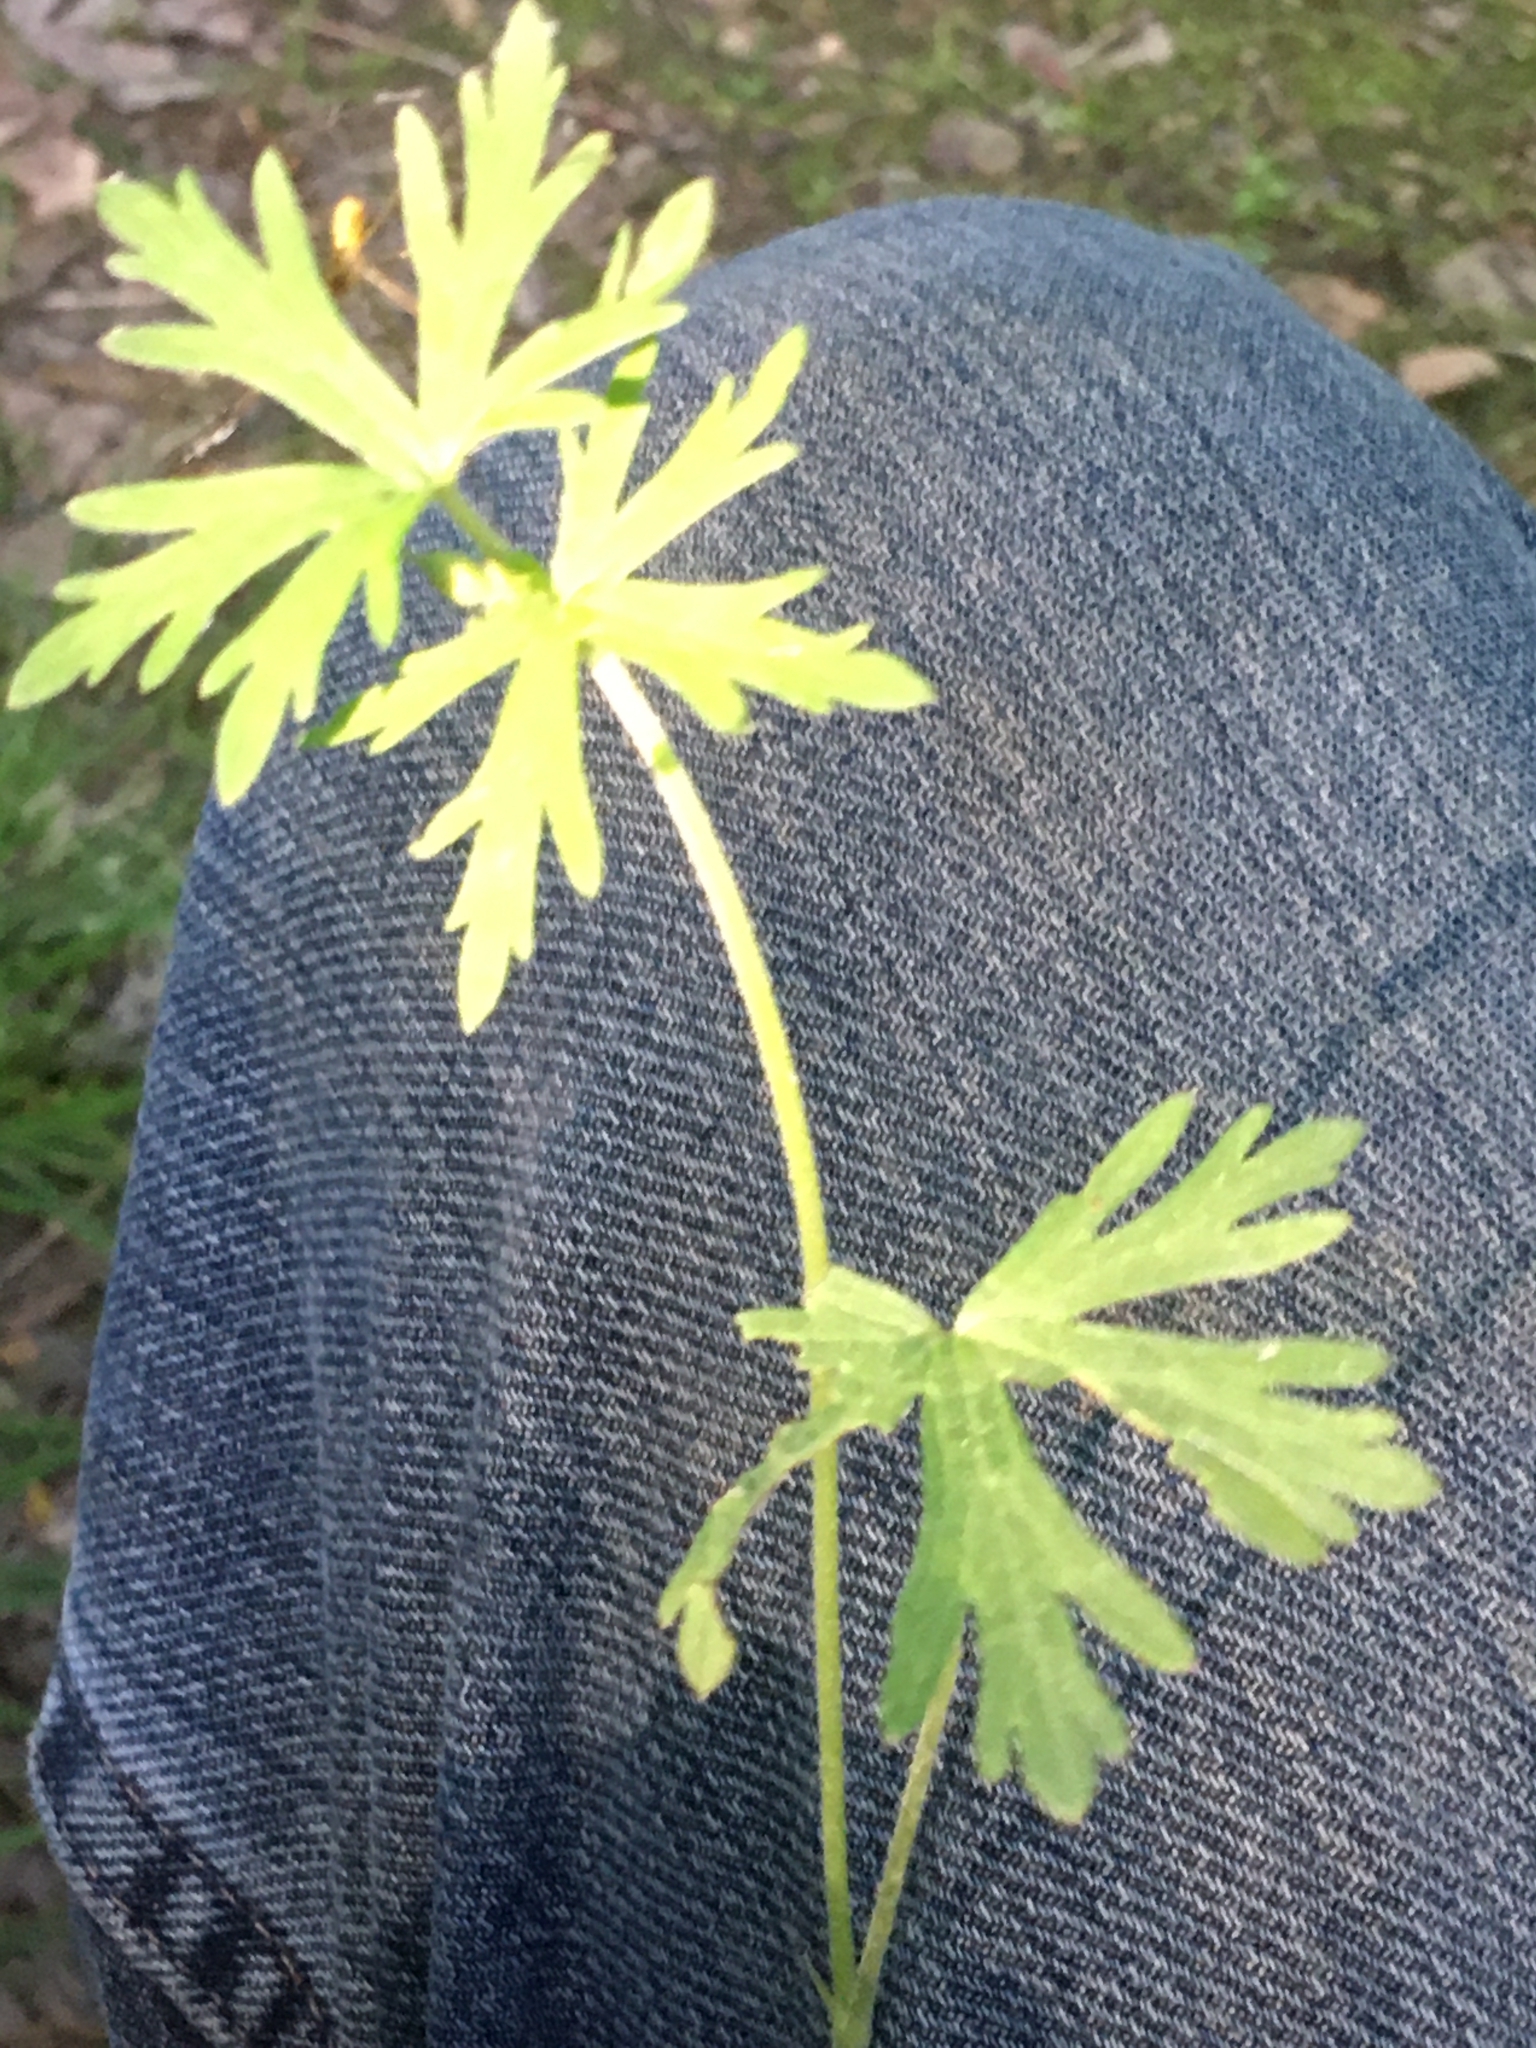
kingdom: Plantae
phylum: Tracheophyta
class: Magnoliopsida
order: Geraniales
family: Geraniaceae
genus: Geranium
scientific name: Geranium carolinianum
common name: Carolina crane's-bill
